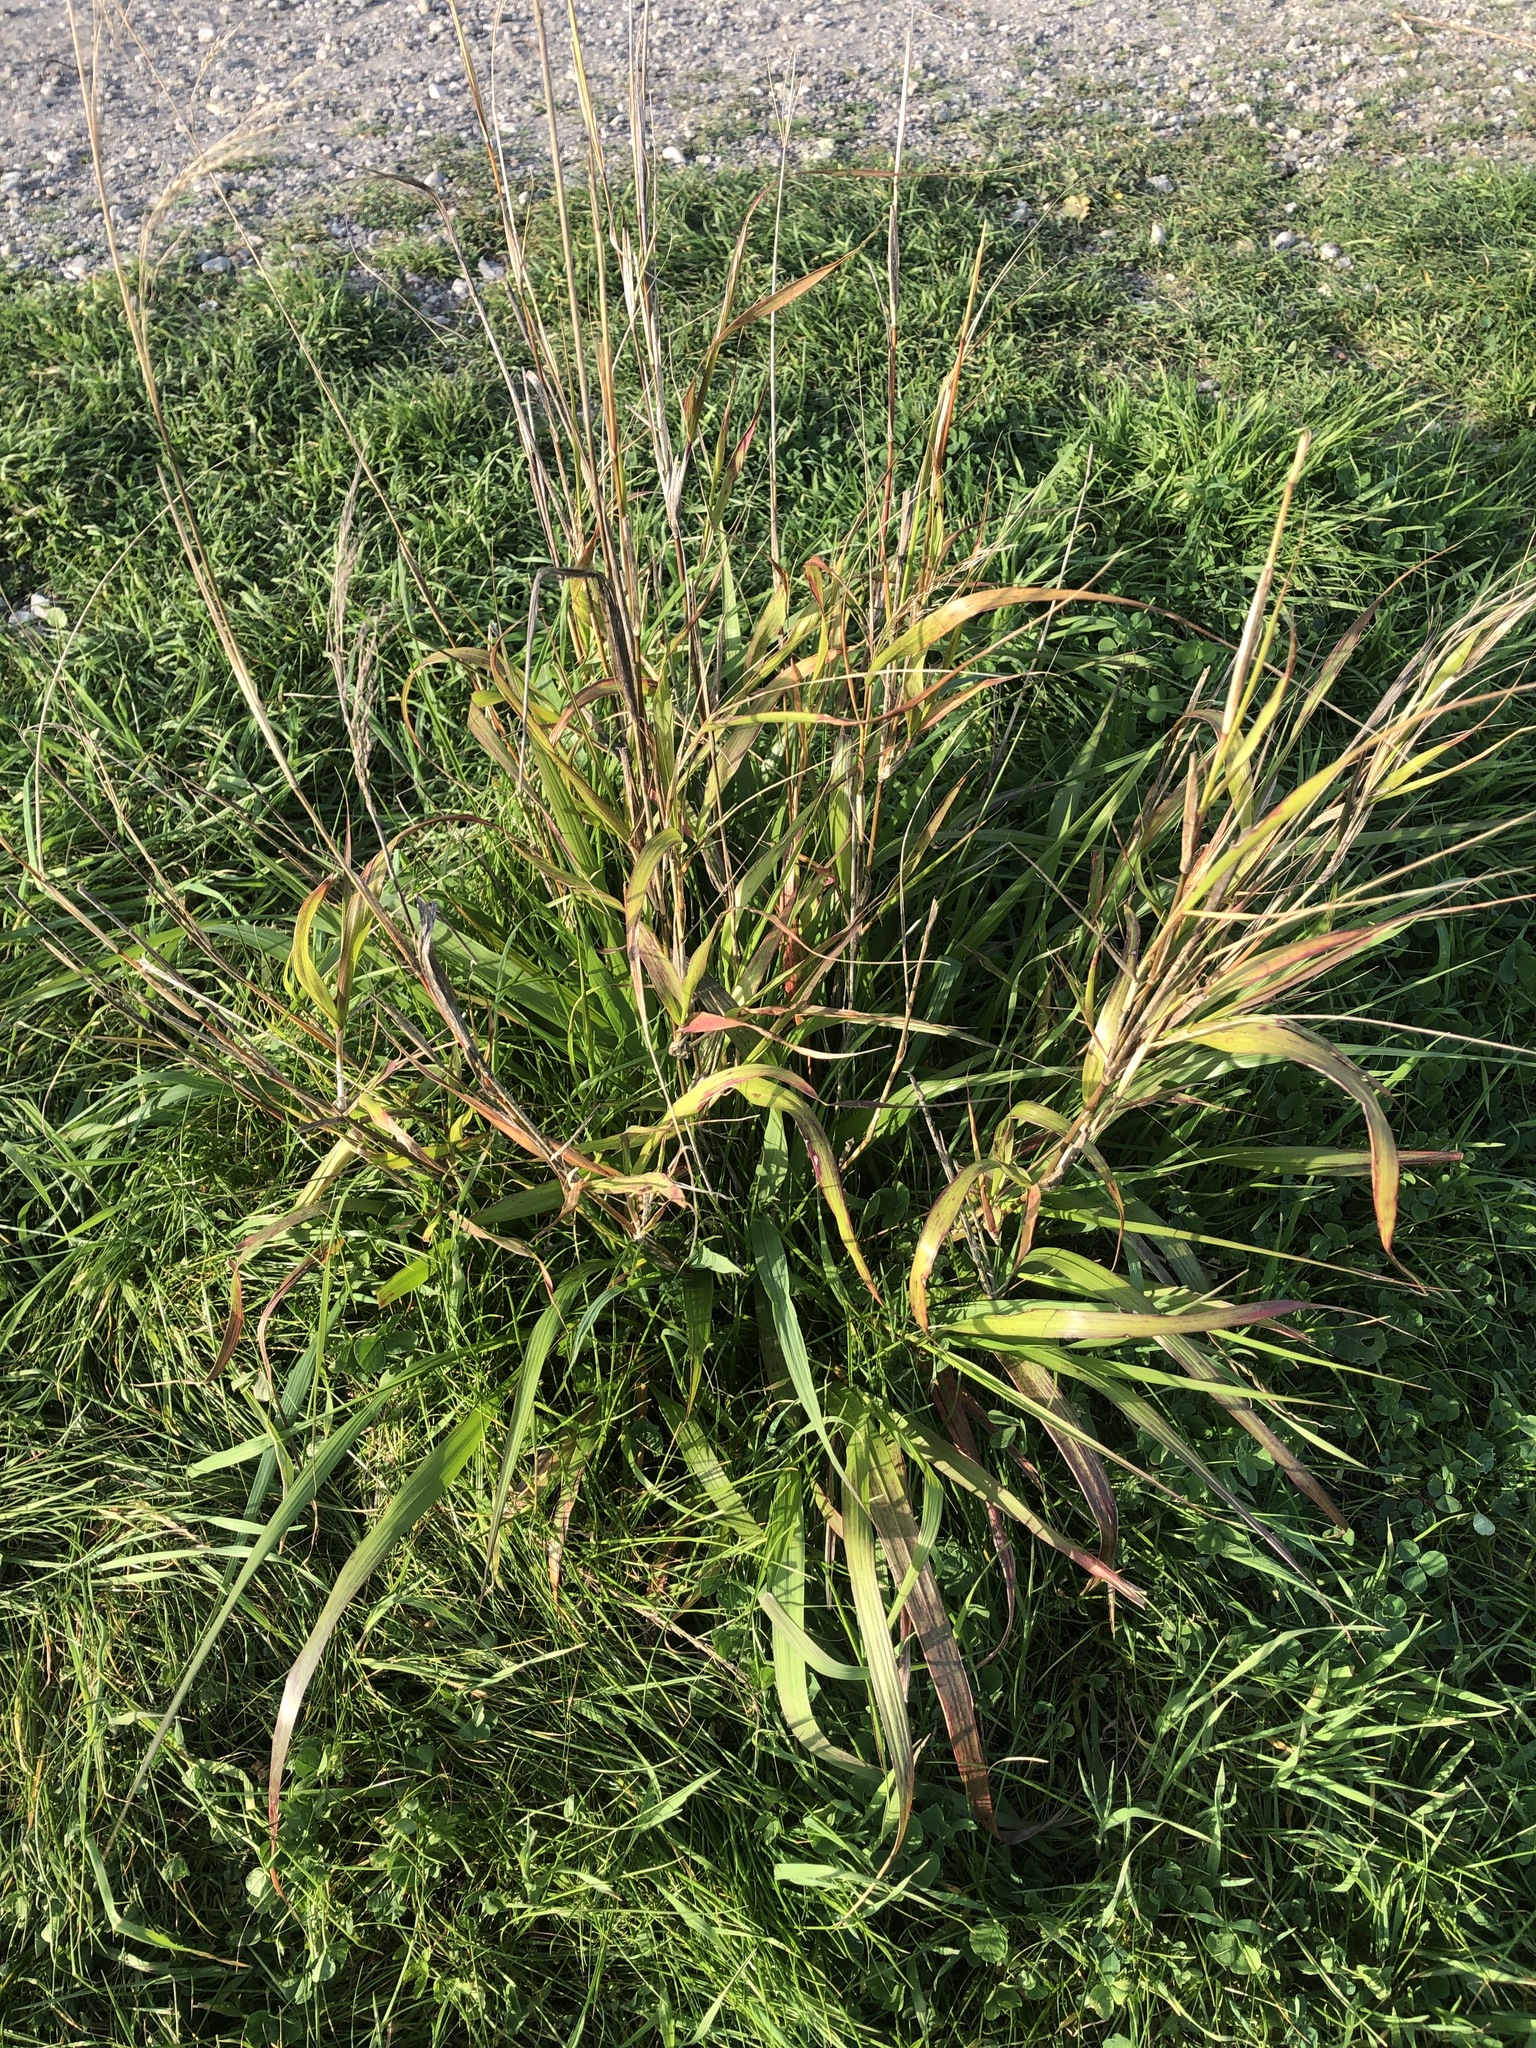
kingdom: Plantae
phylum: Tracheophyta
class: Liliopsida
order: Poales
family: Poaceae
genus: Ehrharta
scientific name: Ehrharta erecta
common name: Panic veldtgrass
